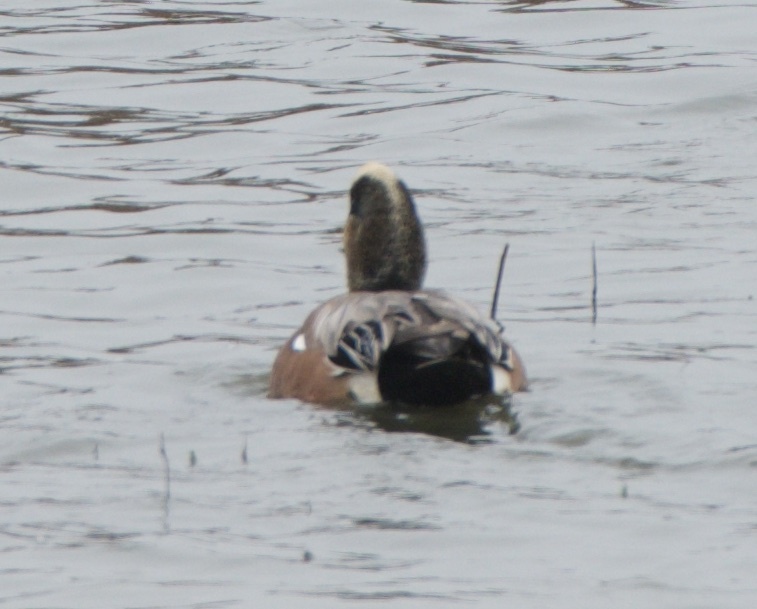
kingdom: Animalia
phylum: Chordata
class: Aves
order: Anseriformes
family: Anatidae
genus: Mareca
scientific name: Mareca americana
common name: American wigeon
